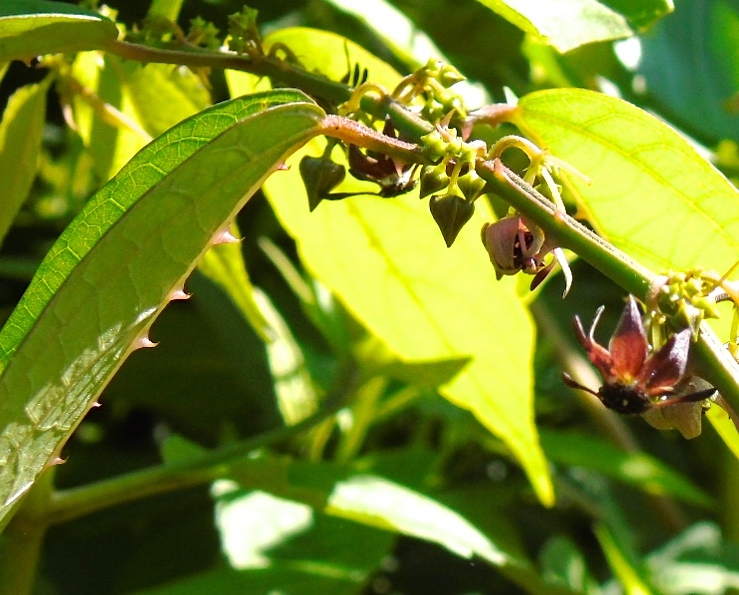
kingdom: Plantae
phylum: Tracheophyta
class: Magnoliopsida
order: Malvales
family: Malvaceae
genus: Byttneria
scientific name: Byttneria aculeata
